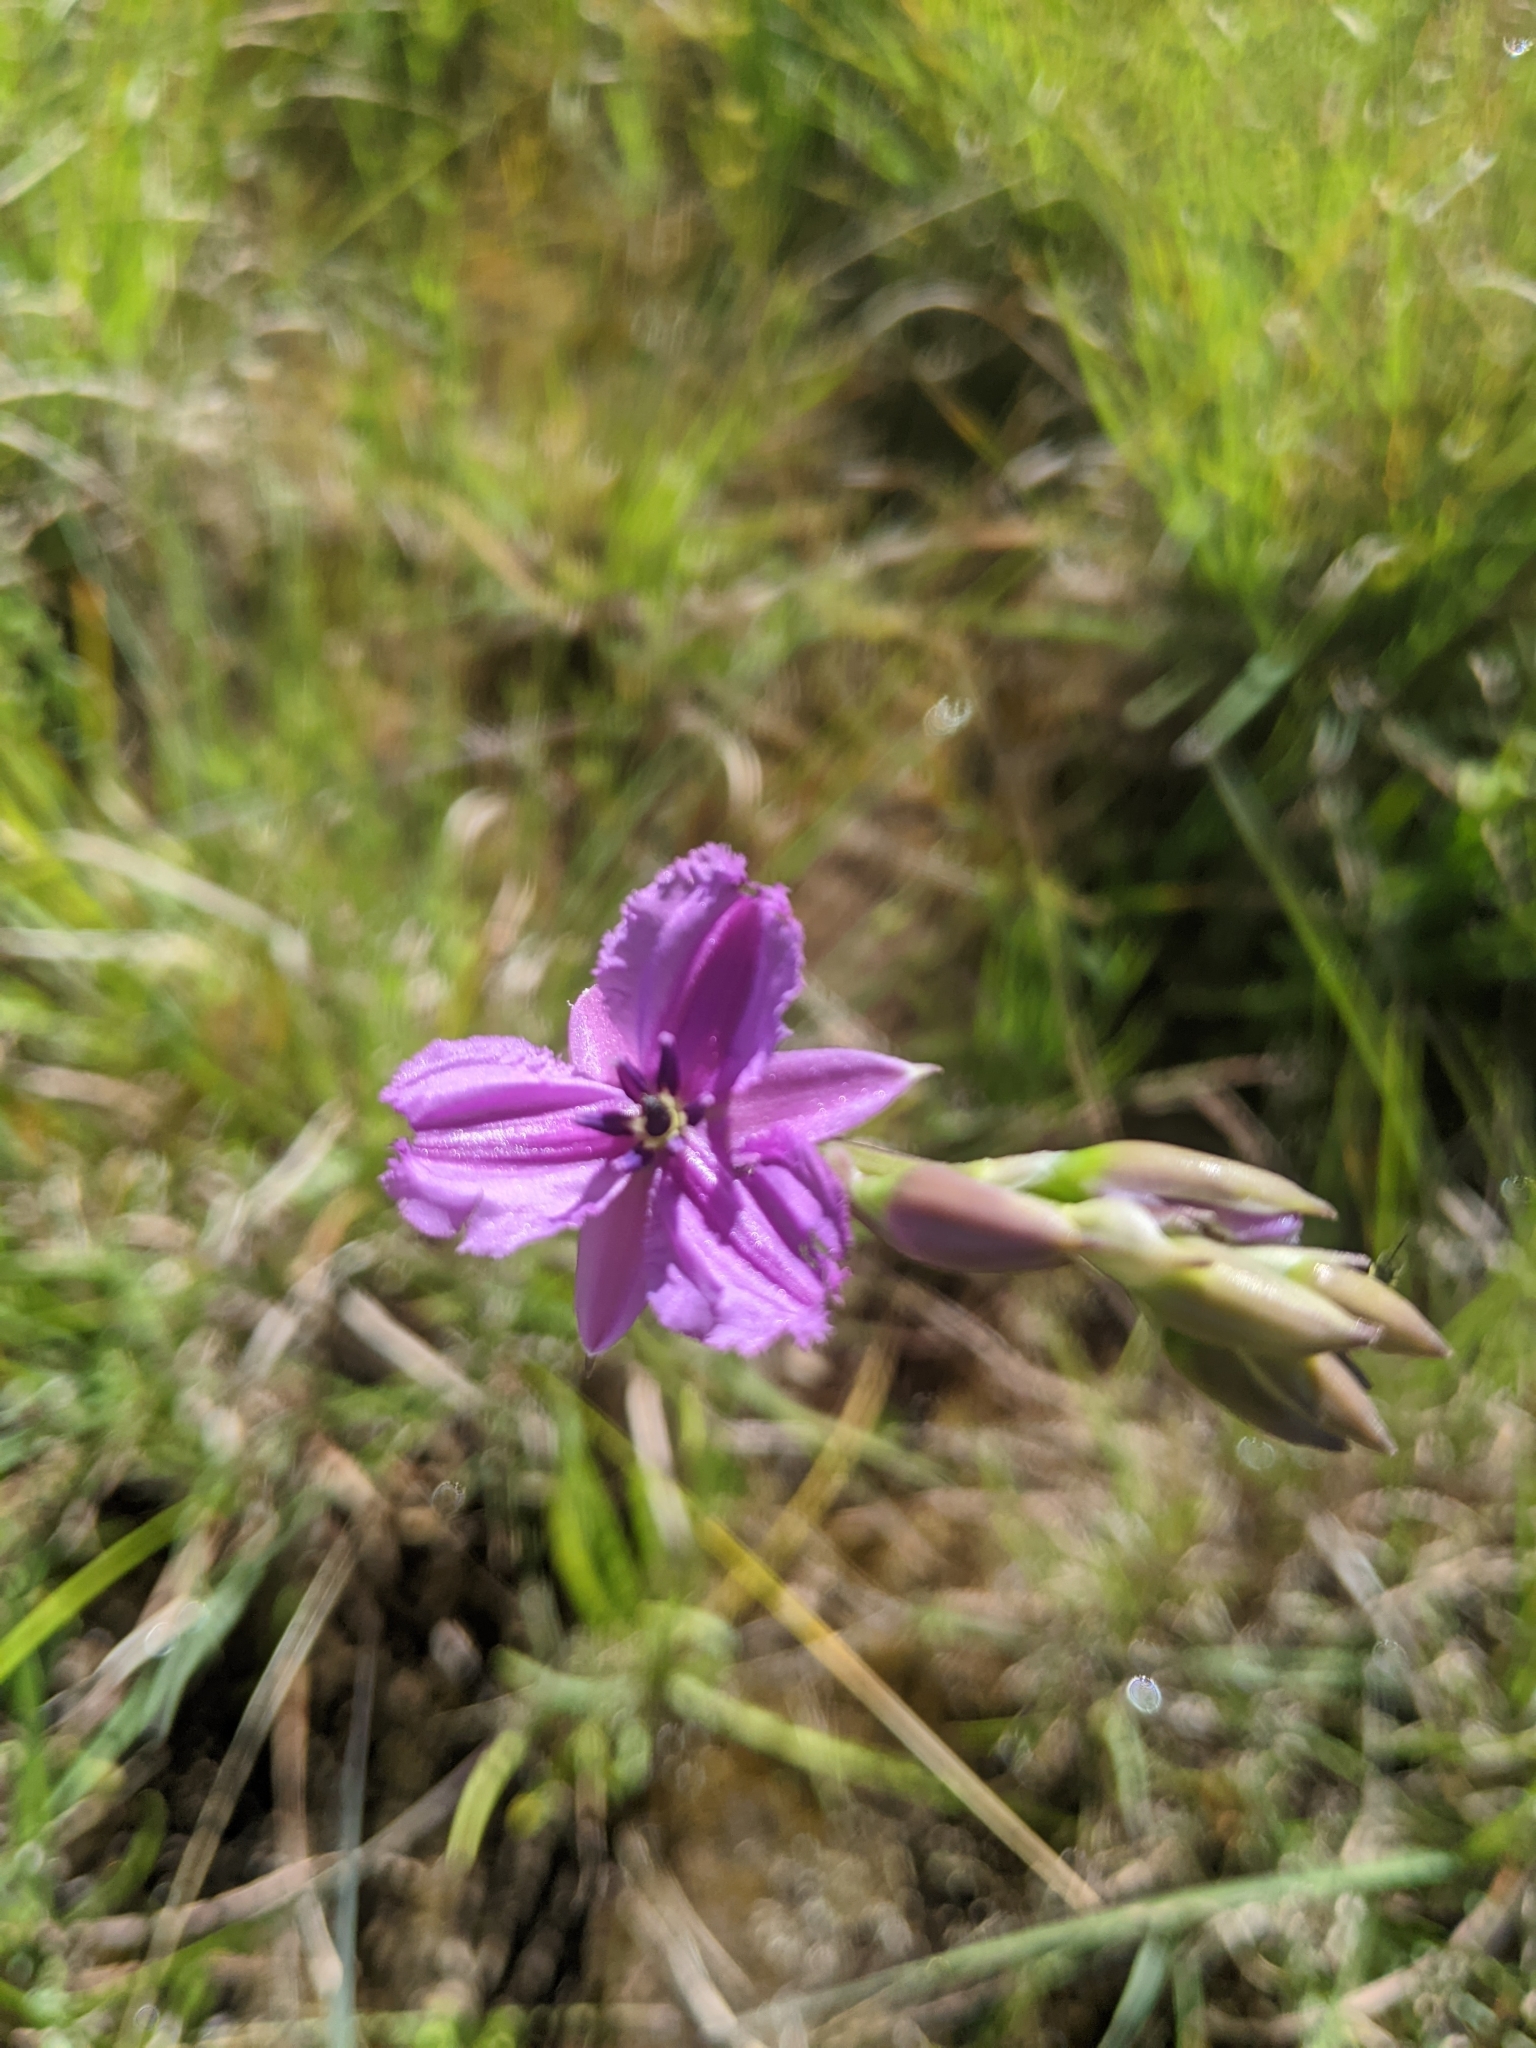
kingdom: Plantae
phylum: Tracheophyta
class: Liliopsida
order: Asparagales
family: Asparagaceae
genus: Arthropodium
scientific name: Arthropodium strictum
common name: Chocolate-lily
